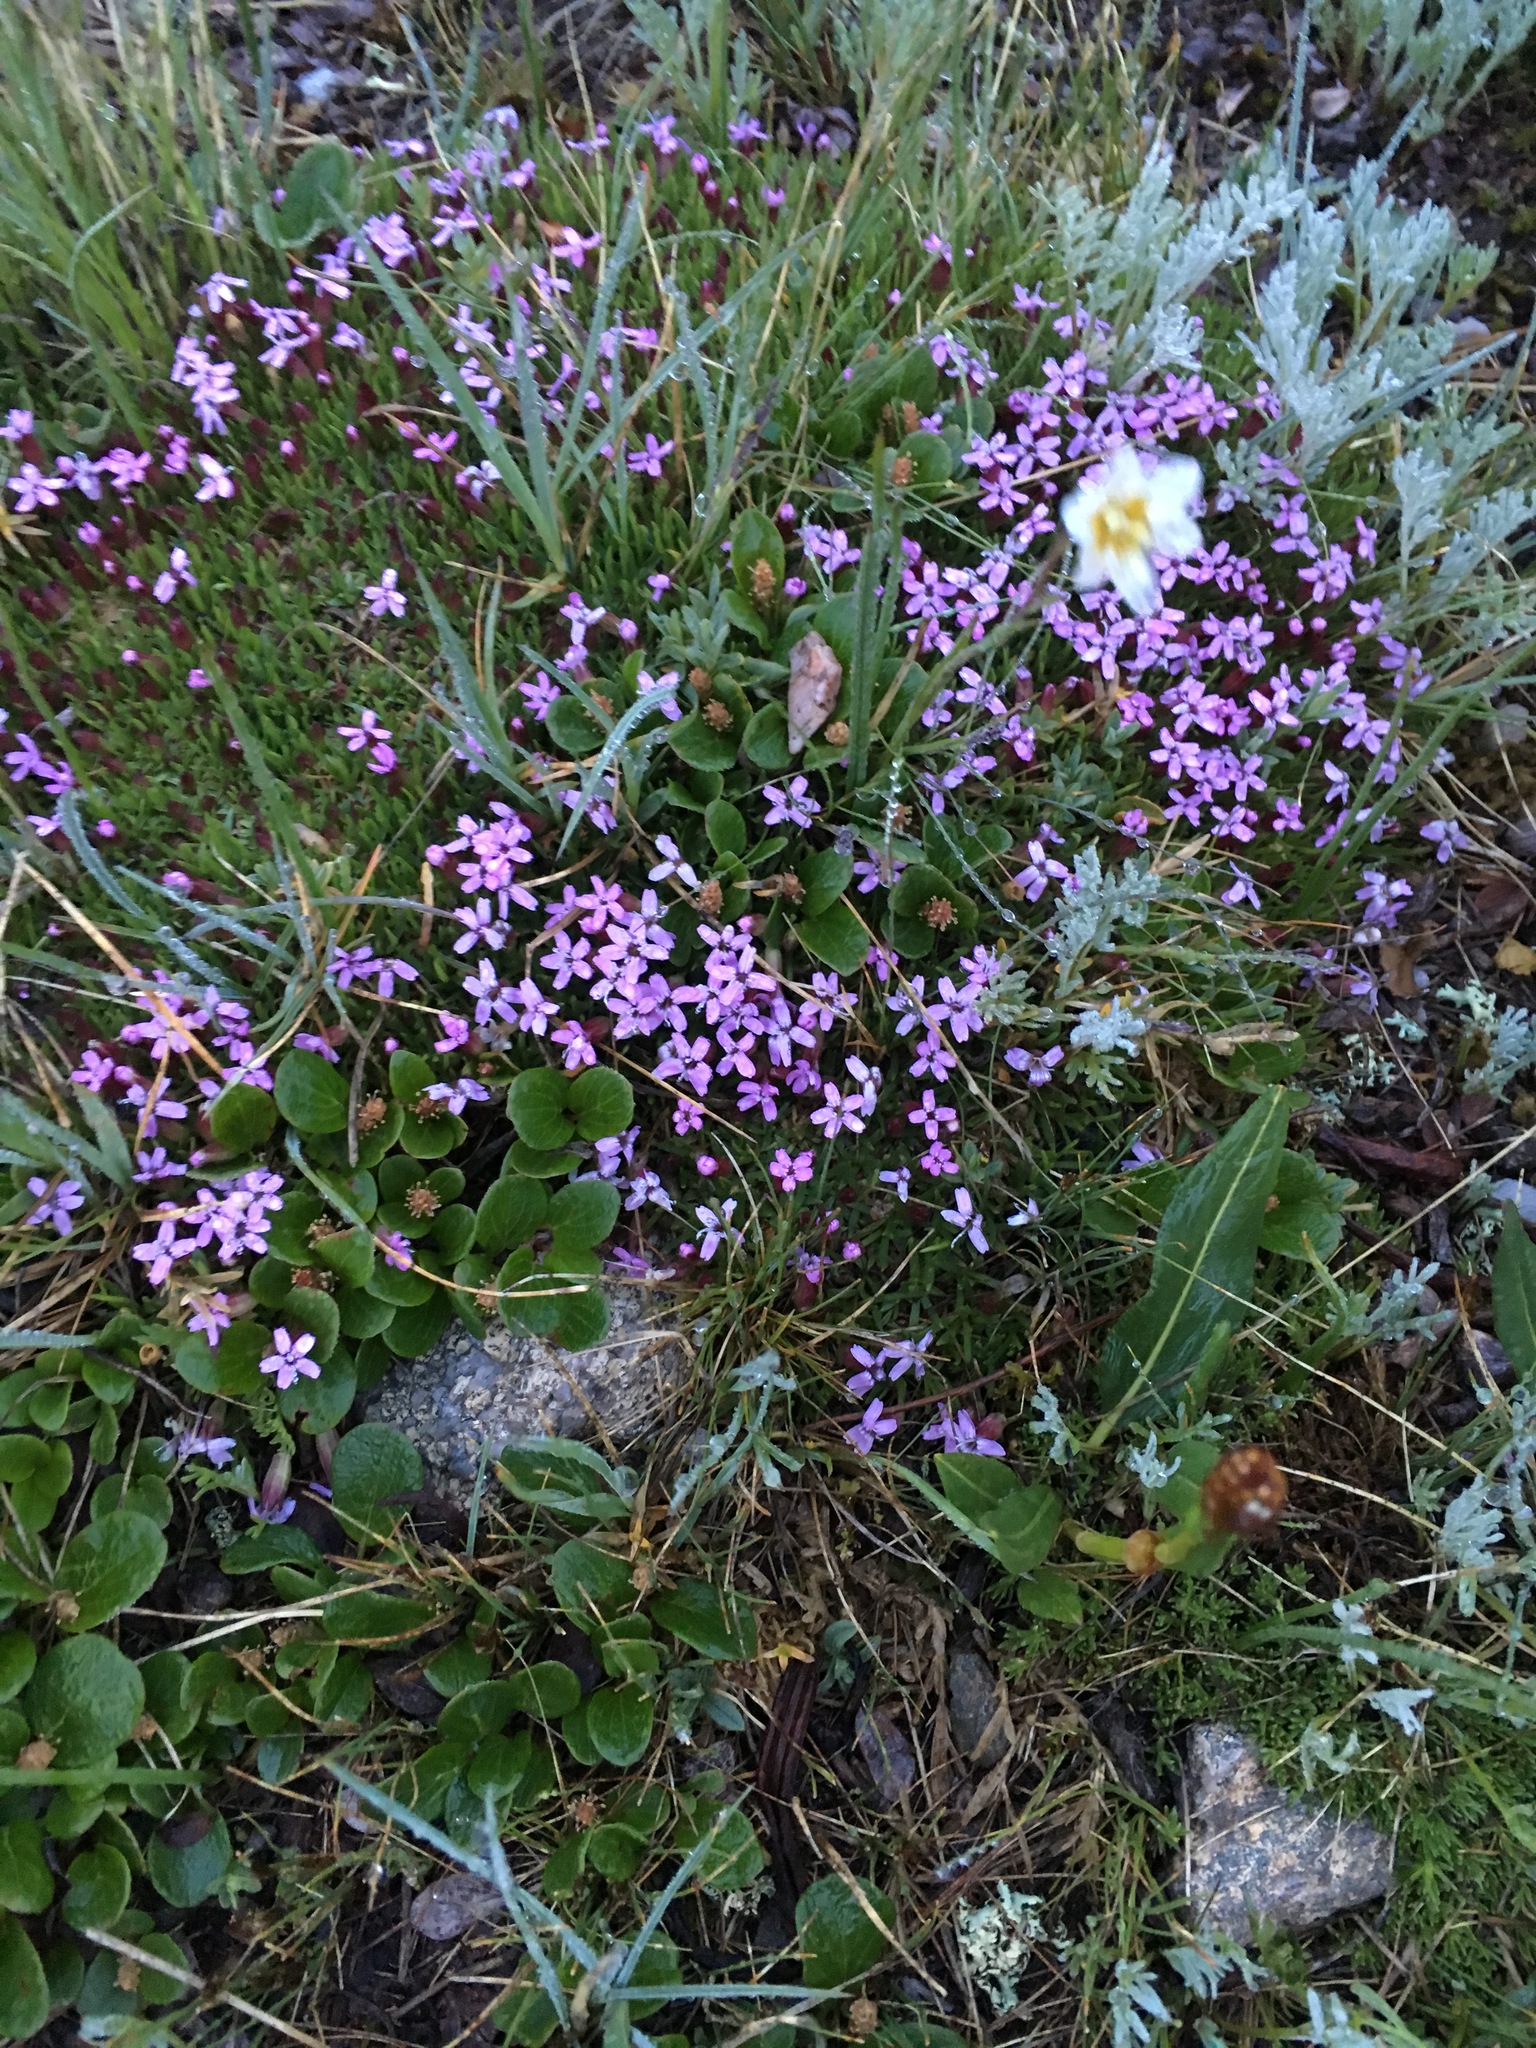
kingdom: Plantae
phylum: Tracheophyta
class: Magnoliopsida
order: Caryophyllales
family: Caryophyllaceae
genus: Silene
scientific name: Silene acaulis
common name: Moss campion
